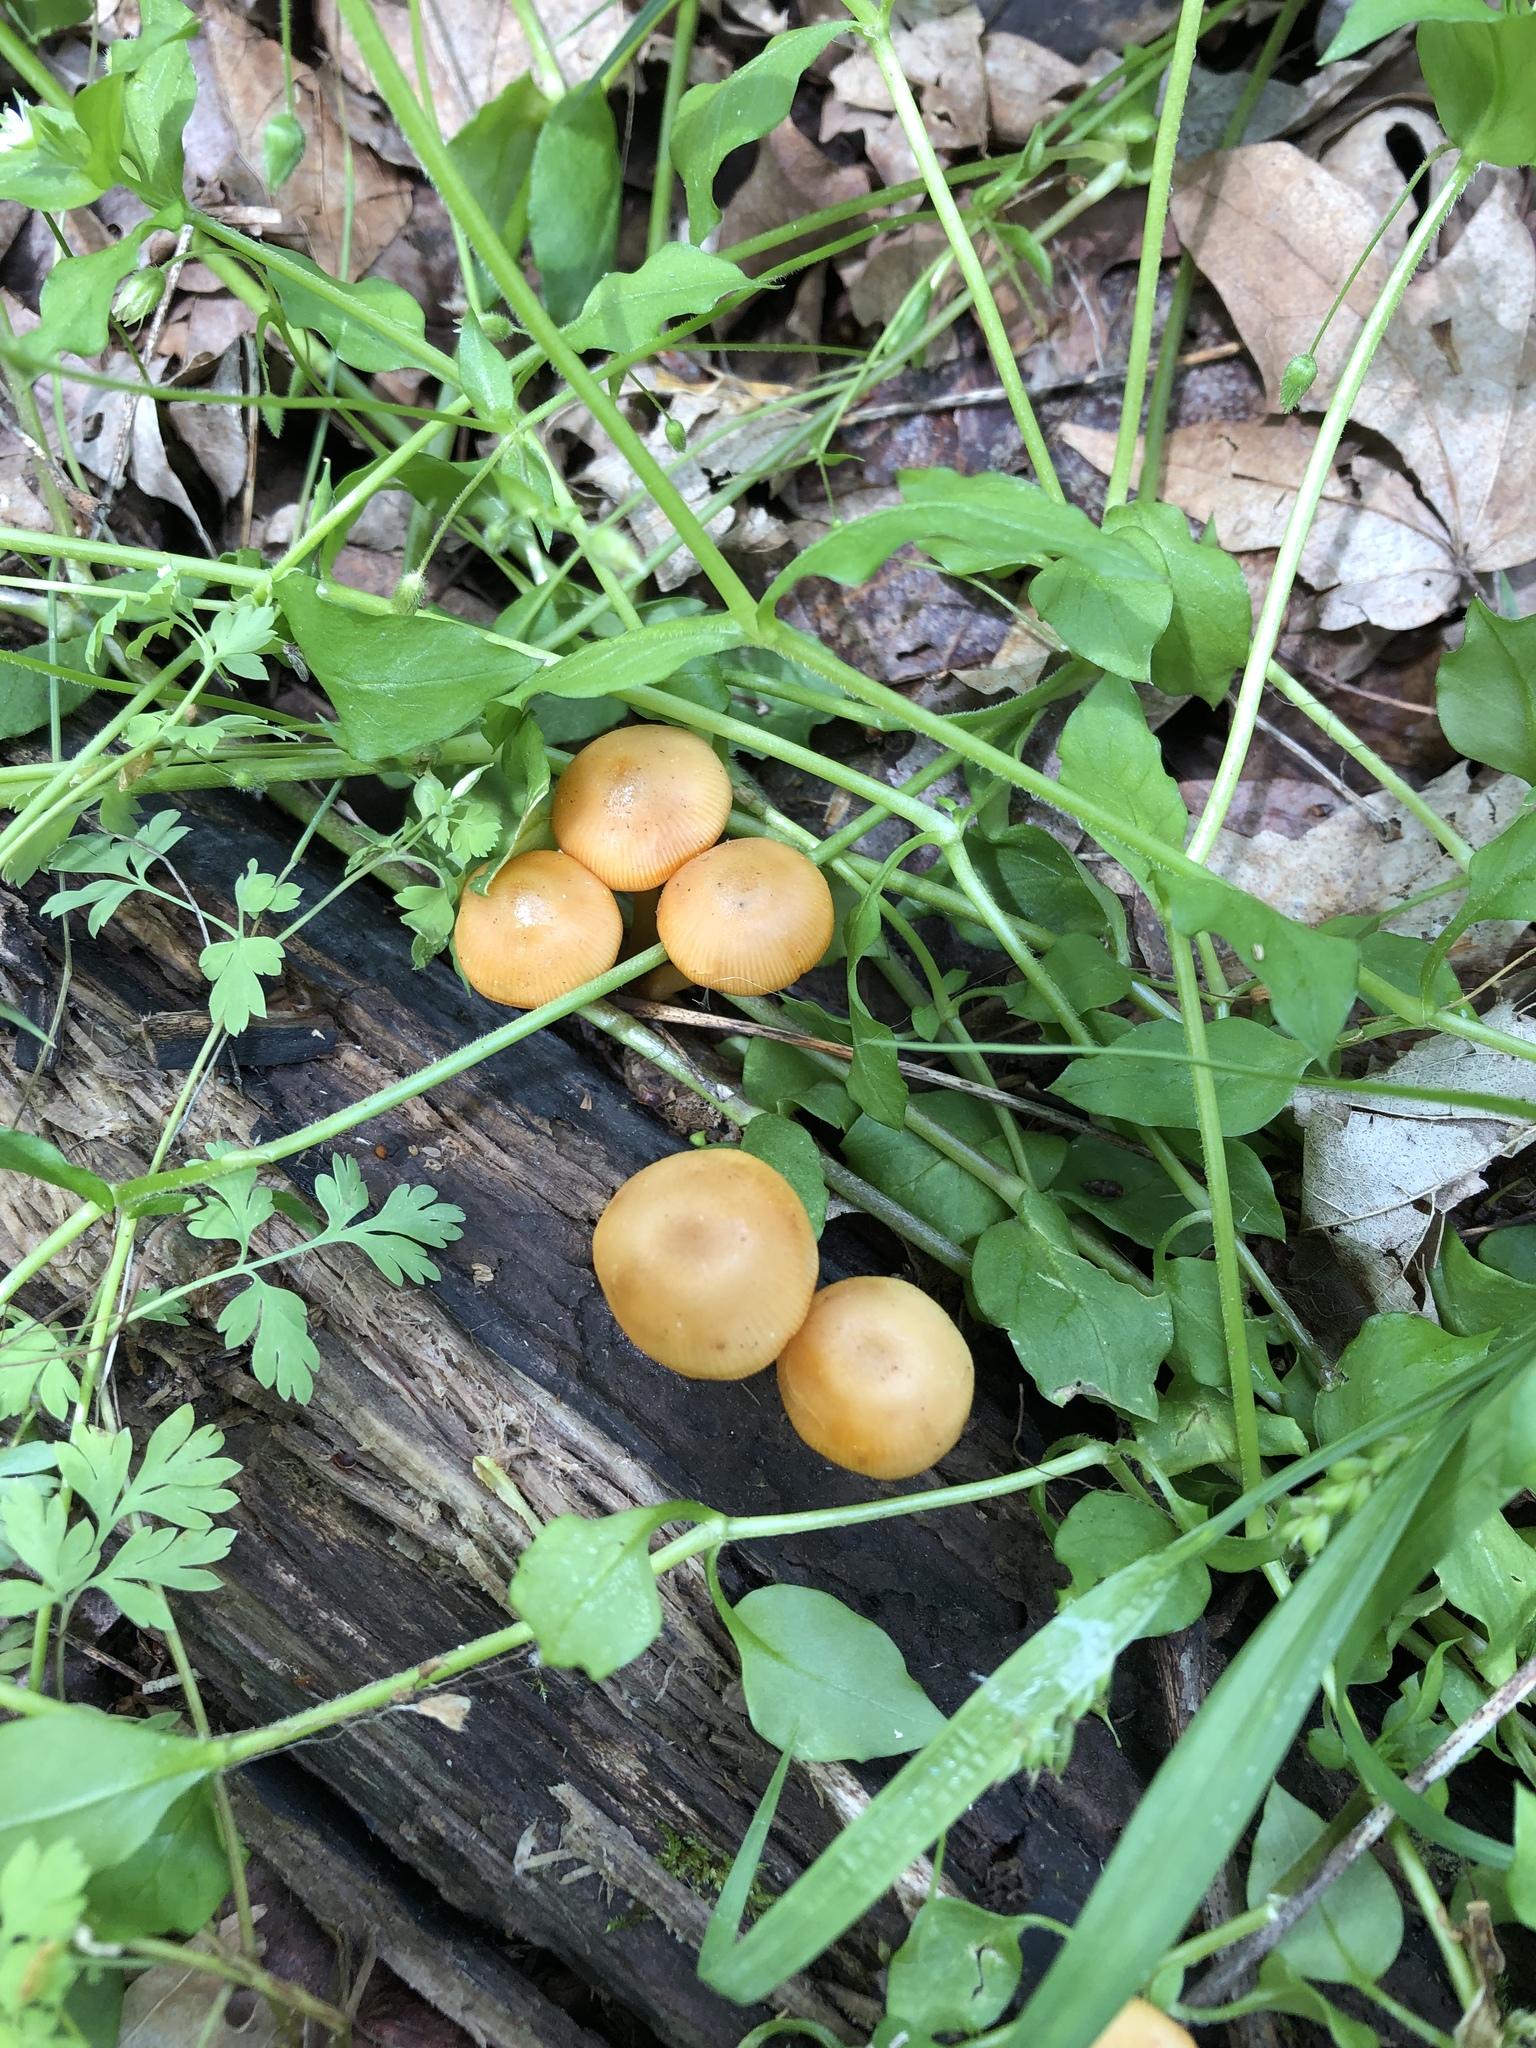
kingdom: Fungi
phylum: Basidiomycota
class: Agaricomycetes
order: Agaricales
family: Mycenaceae
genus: Mycena
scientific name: Mycena leaiana
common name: Orange mycena
